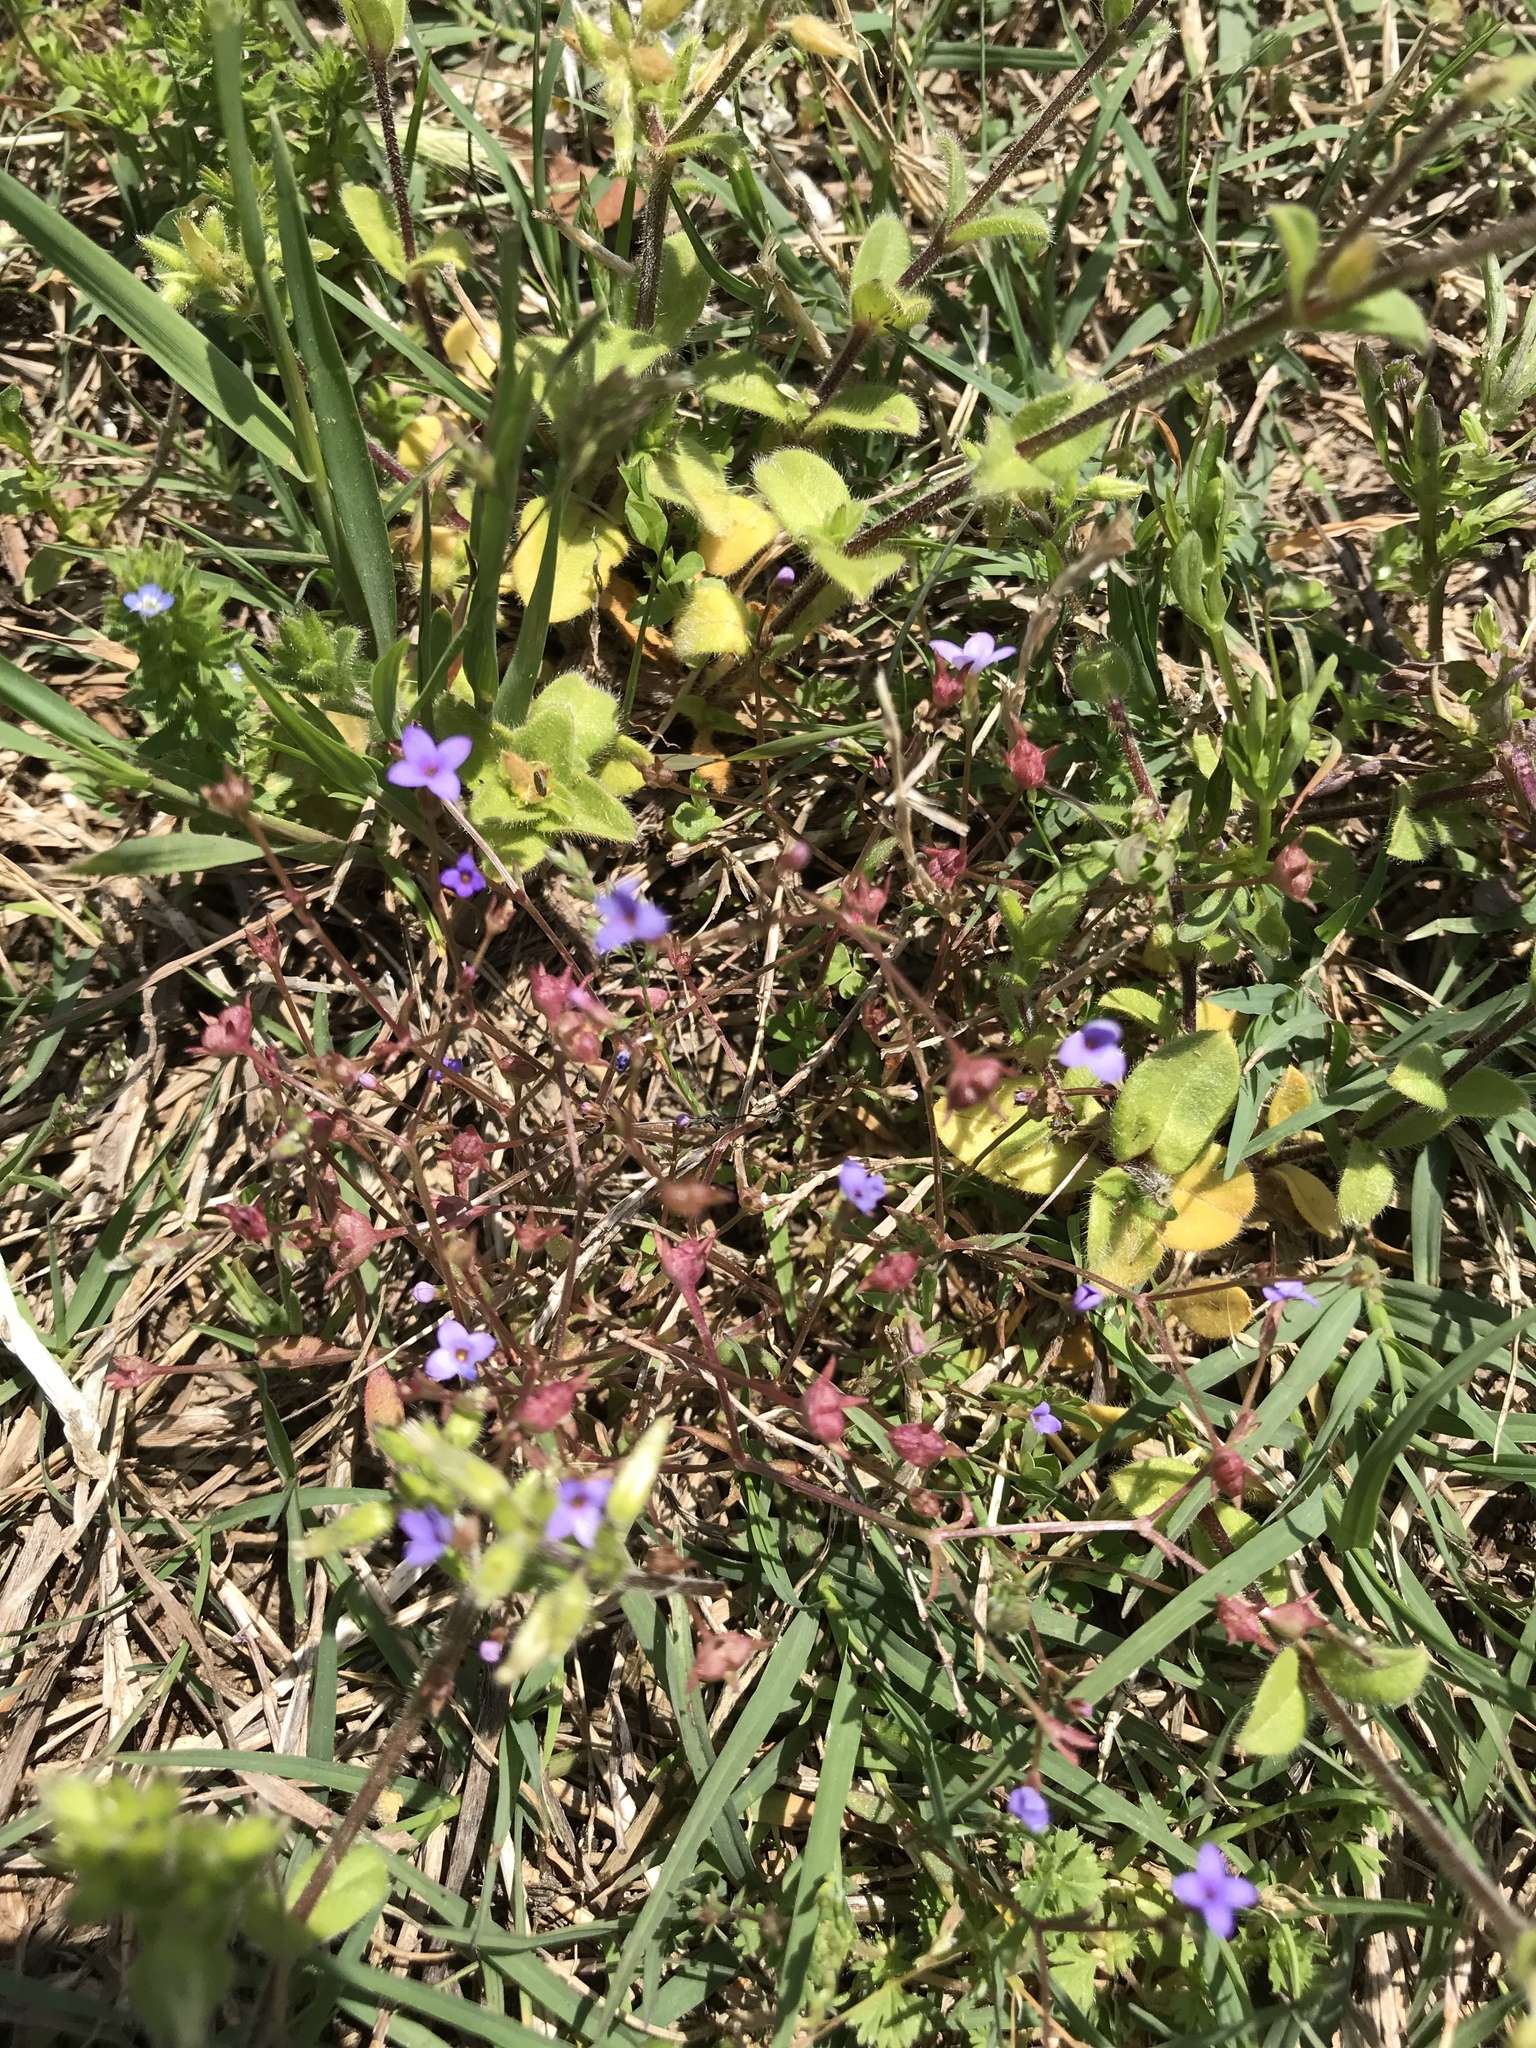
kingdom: Plantae
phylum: Tracheophyta
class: Magnoliopsida
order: Gentianales
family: Rubiaceae
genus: Houstonia
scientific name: Houstonia pusilla
